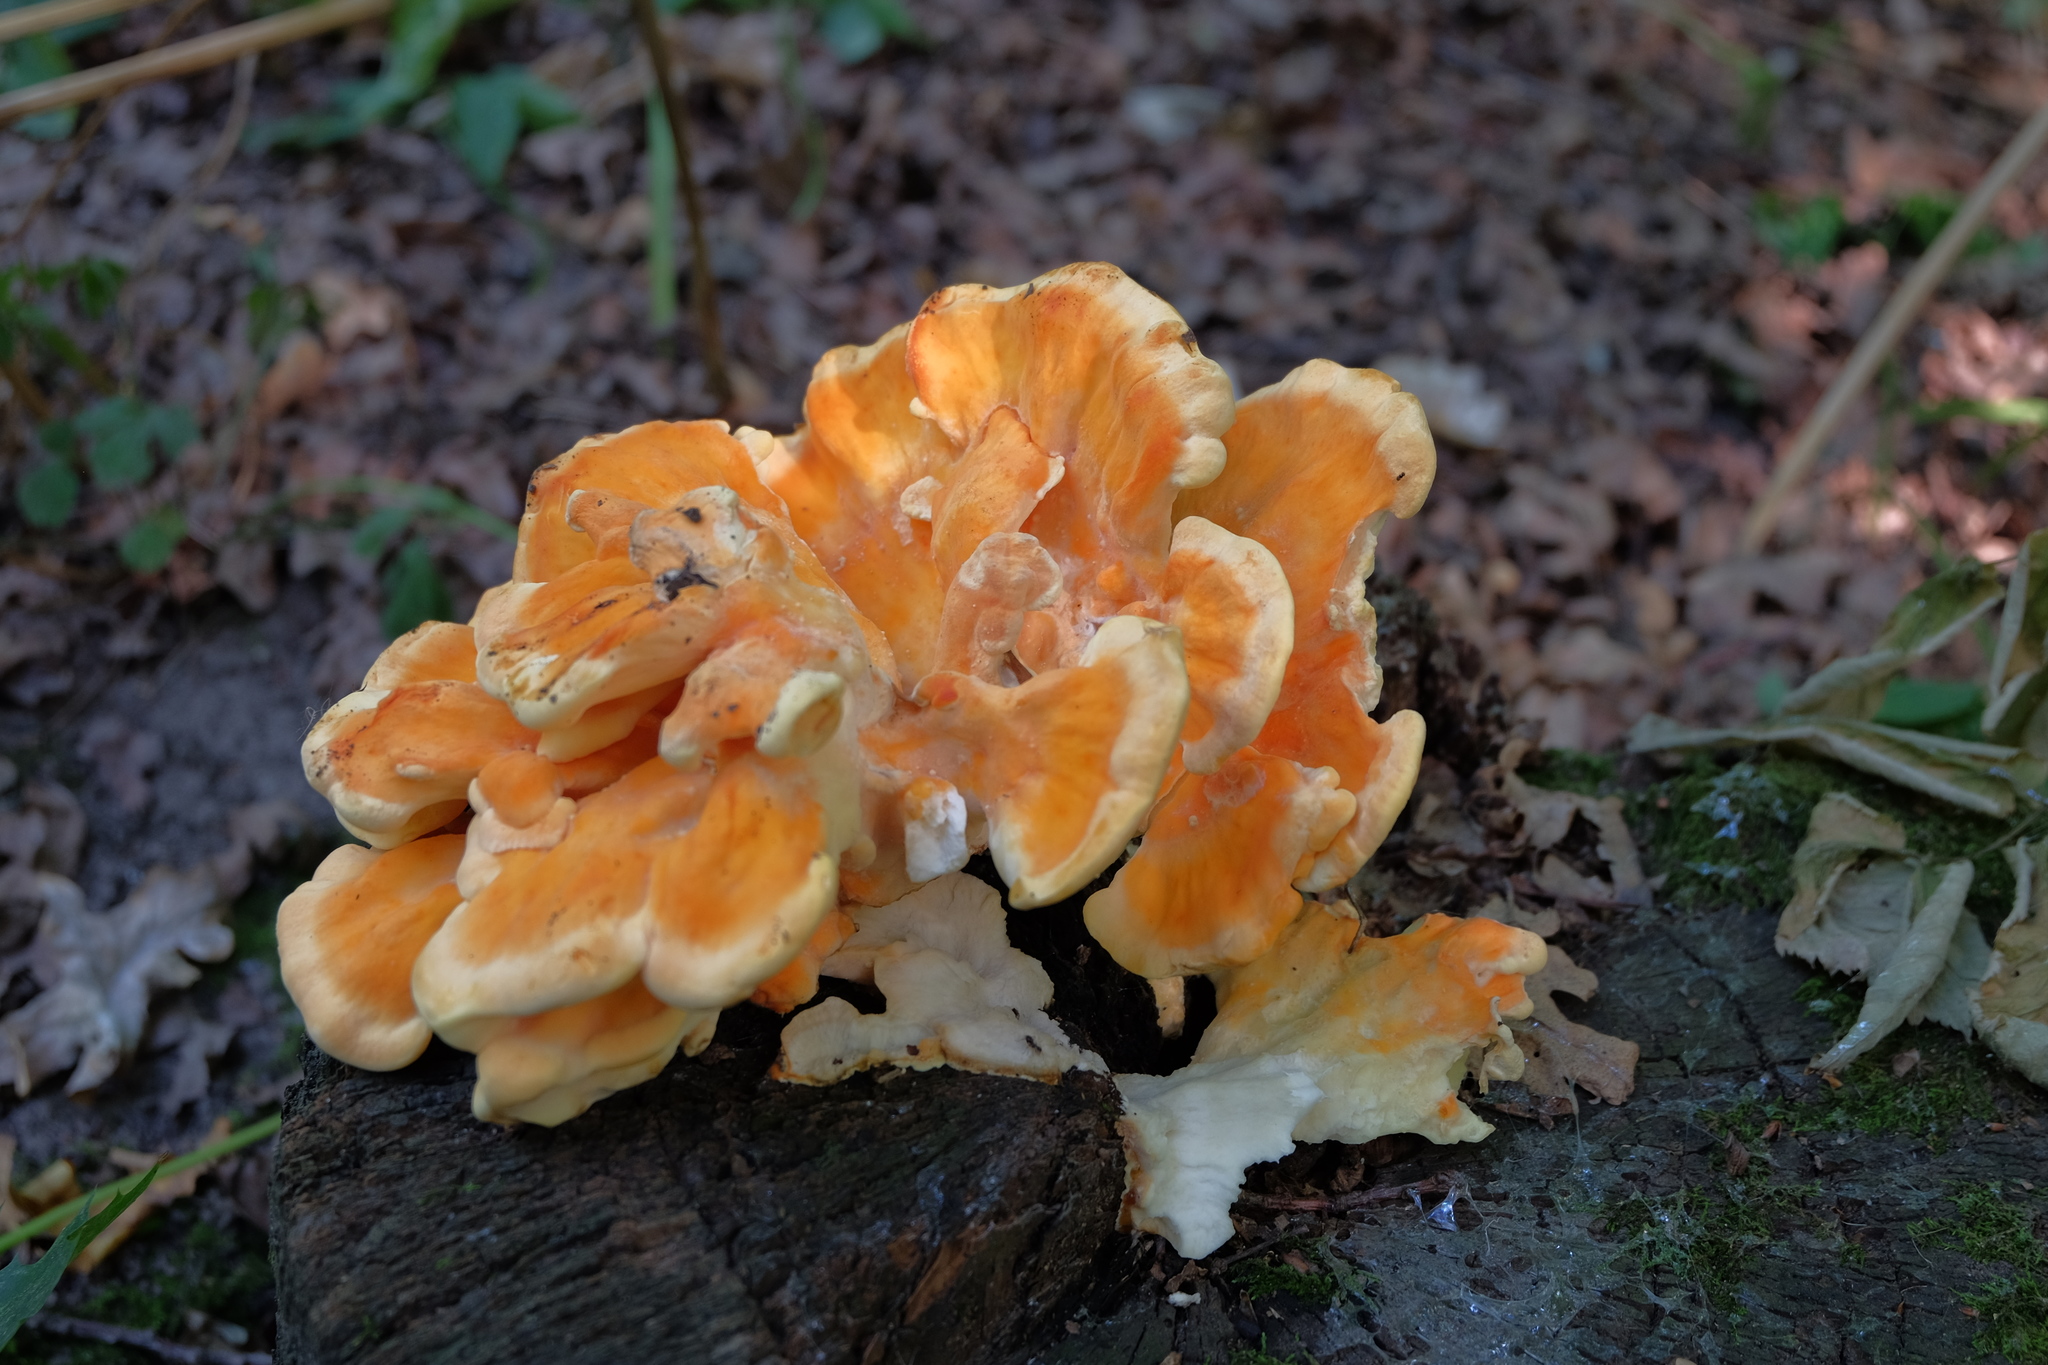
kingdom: Fungi
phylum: Basidiomycota
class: Agaricomycetes
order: Polyporales
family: Laetiporaceae
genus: Laetiporus
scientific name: Laetiporus sulphureus
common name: Chicken of the woods
